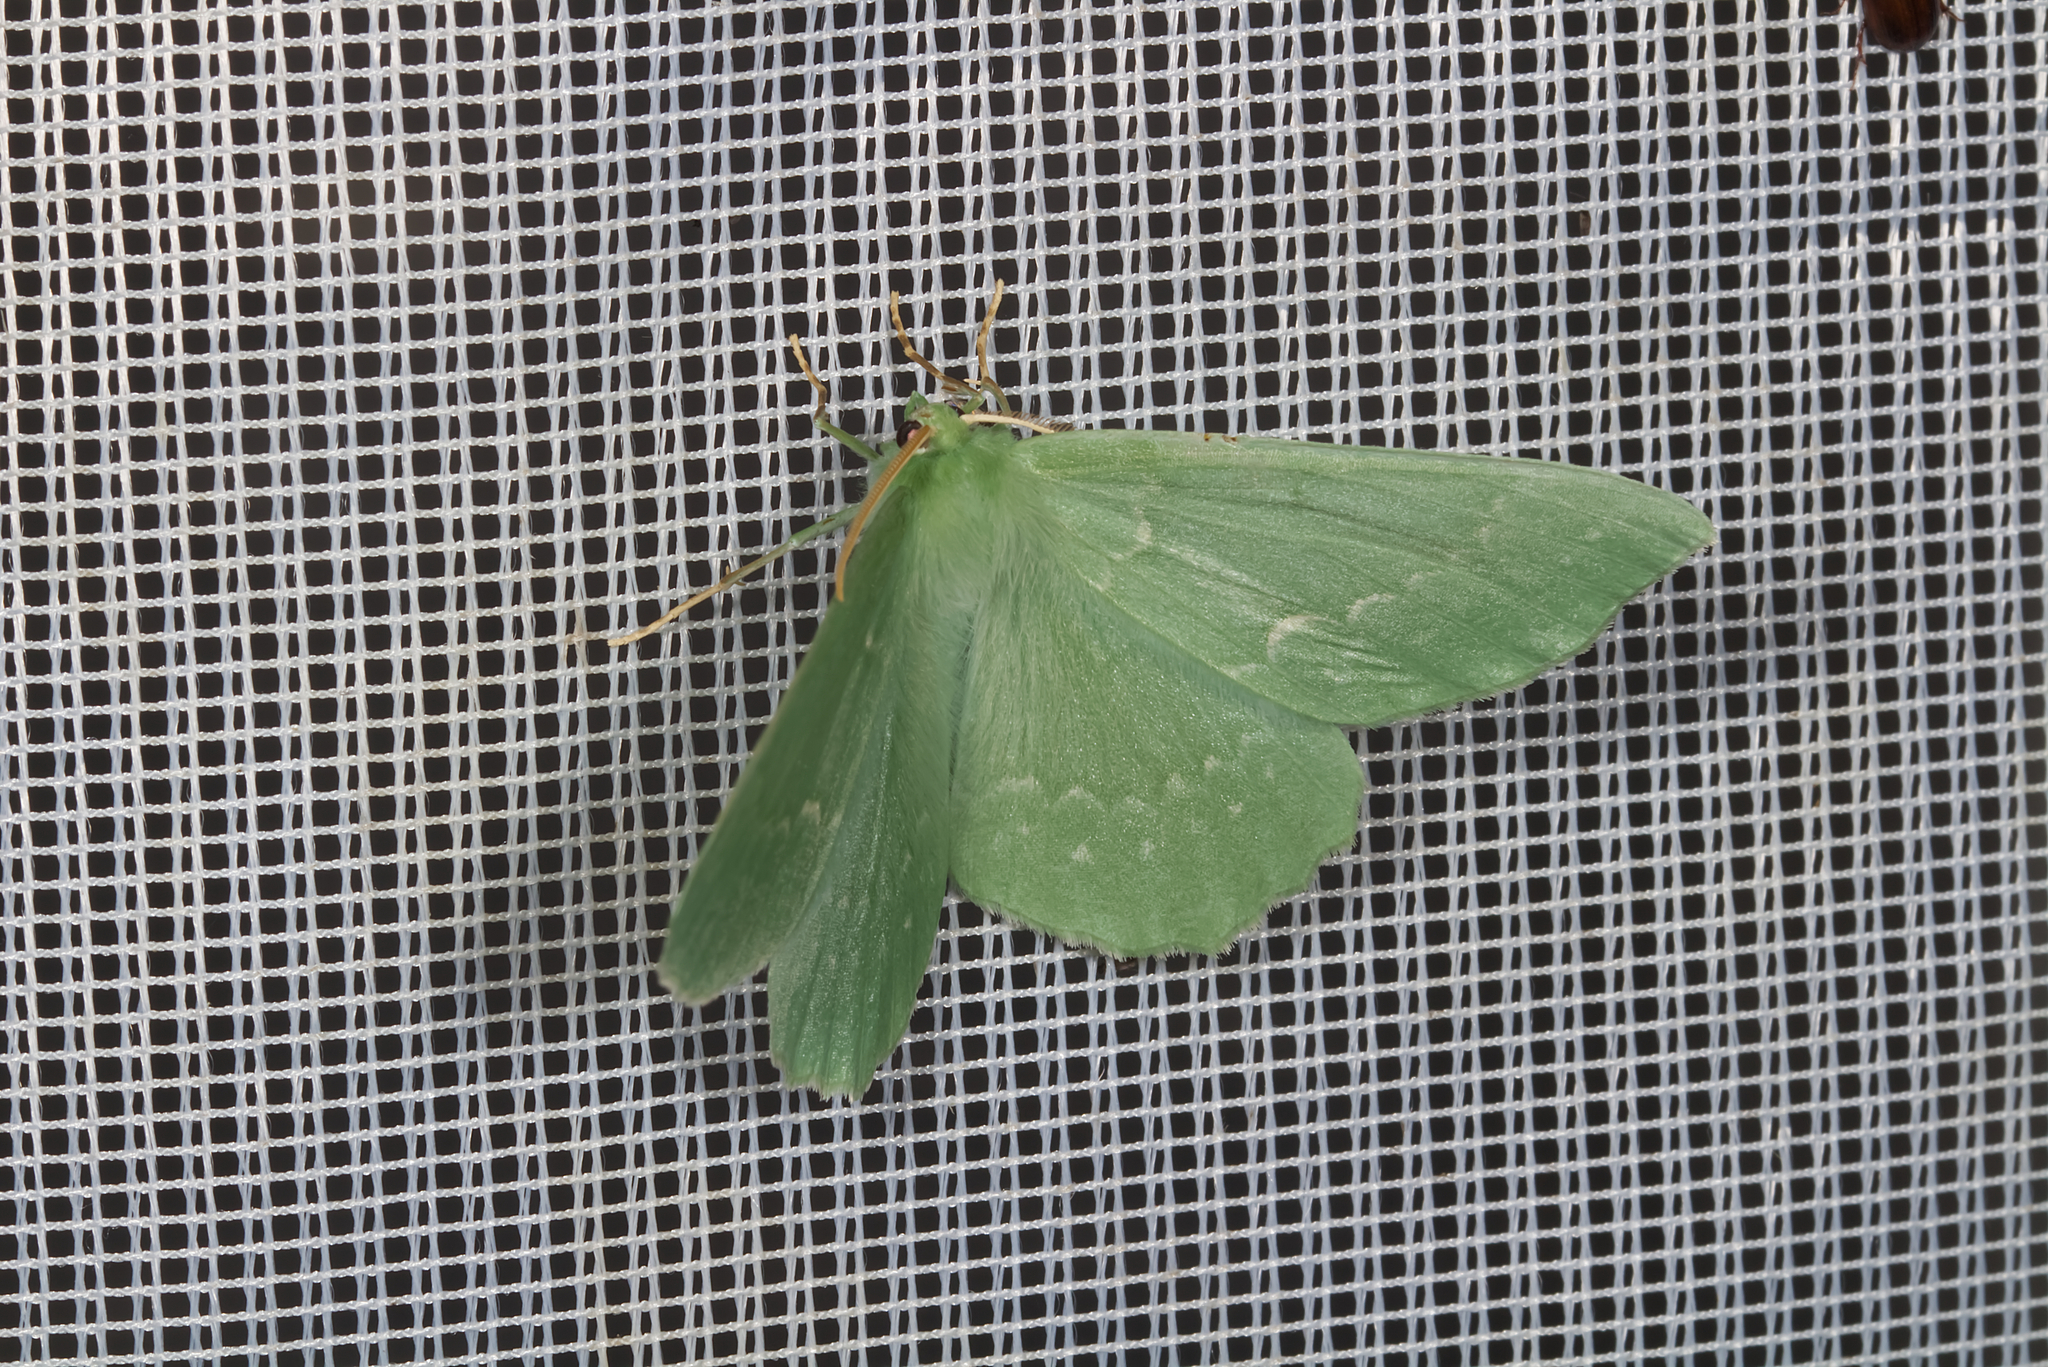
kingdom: Animalia
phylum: Arthropoda
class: Insecta
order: Lepidoptera
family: Geometridae
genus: Geometra
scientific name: Geometra papilionaria
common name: Large emerald
